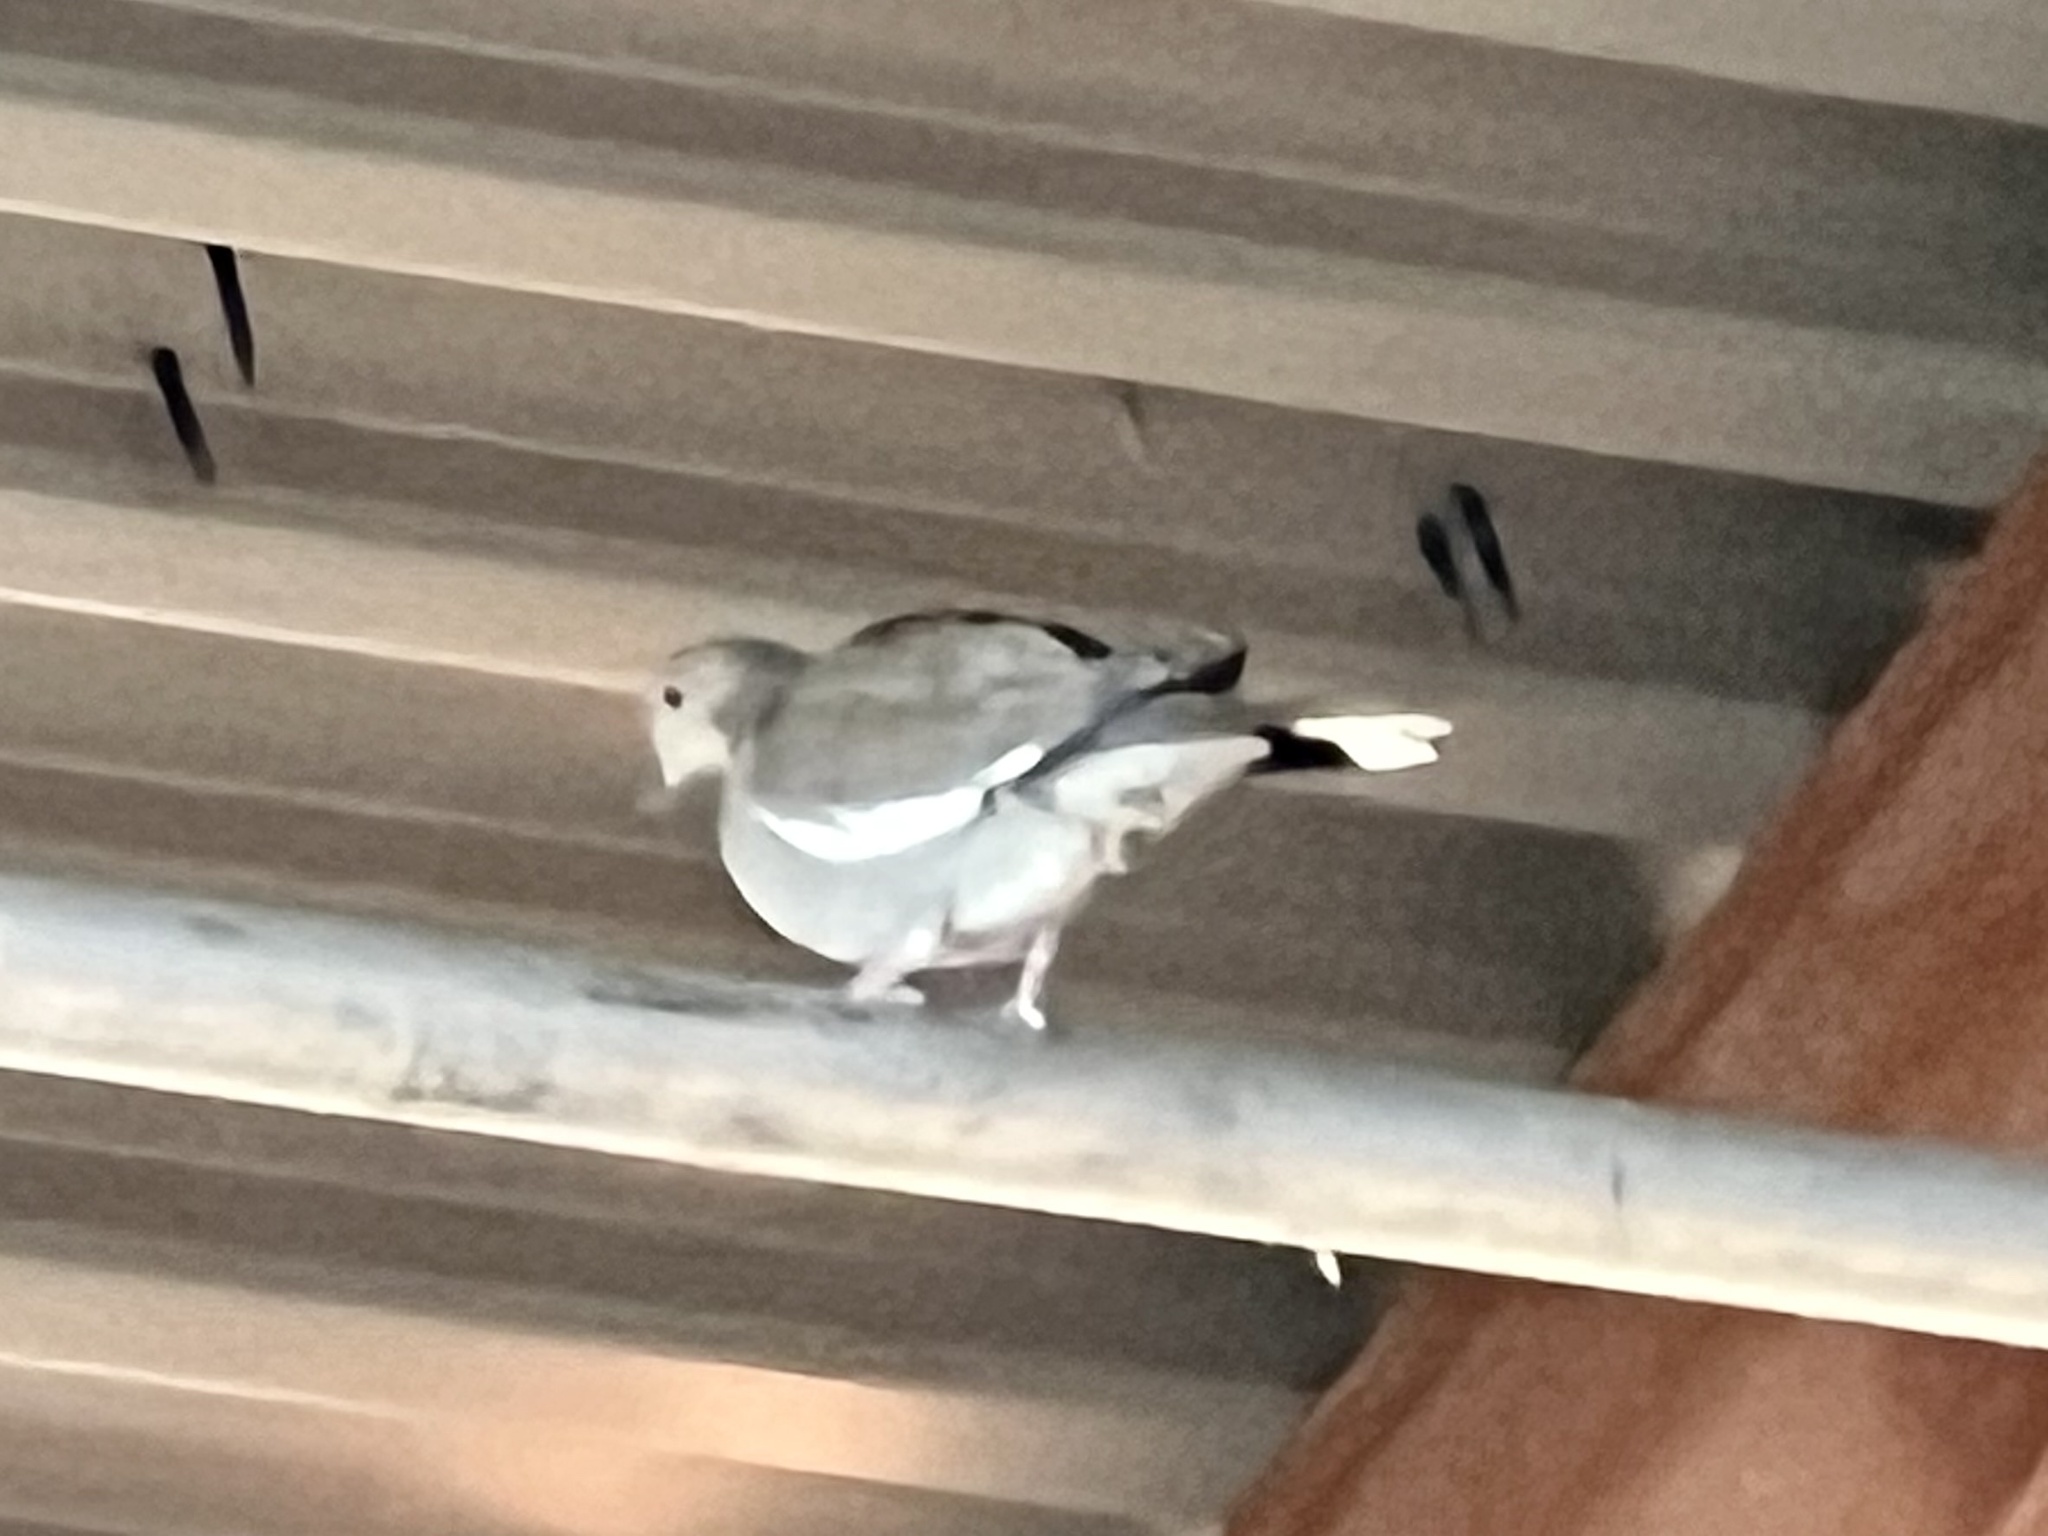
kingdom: Animalia
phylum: Chordata
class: Aves
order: Columbiformes
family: Columbidae
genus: Zenaida
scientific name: Zenaida asiatica
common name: White-winged dove
